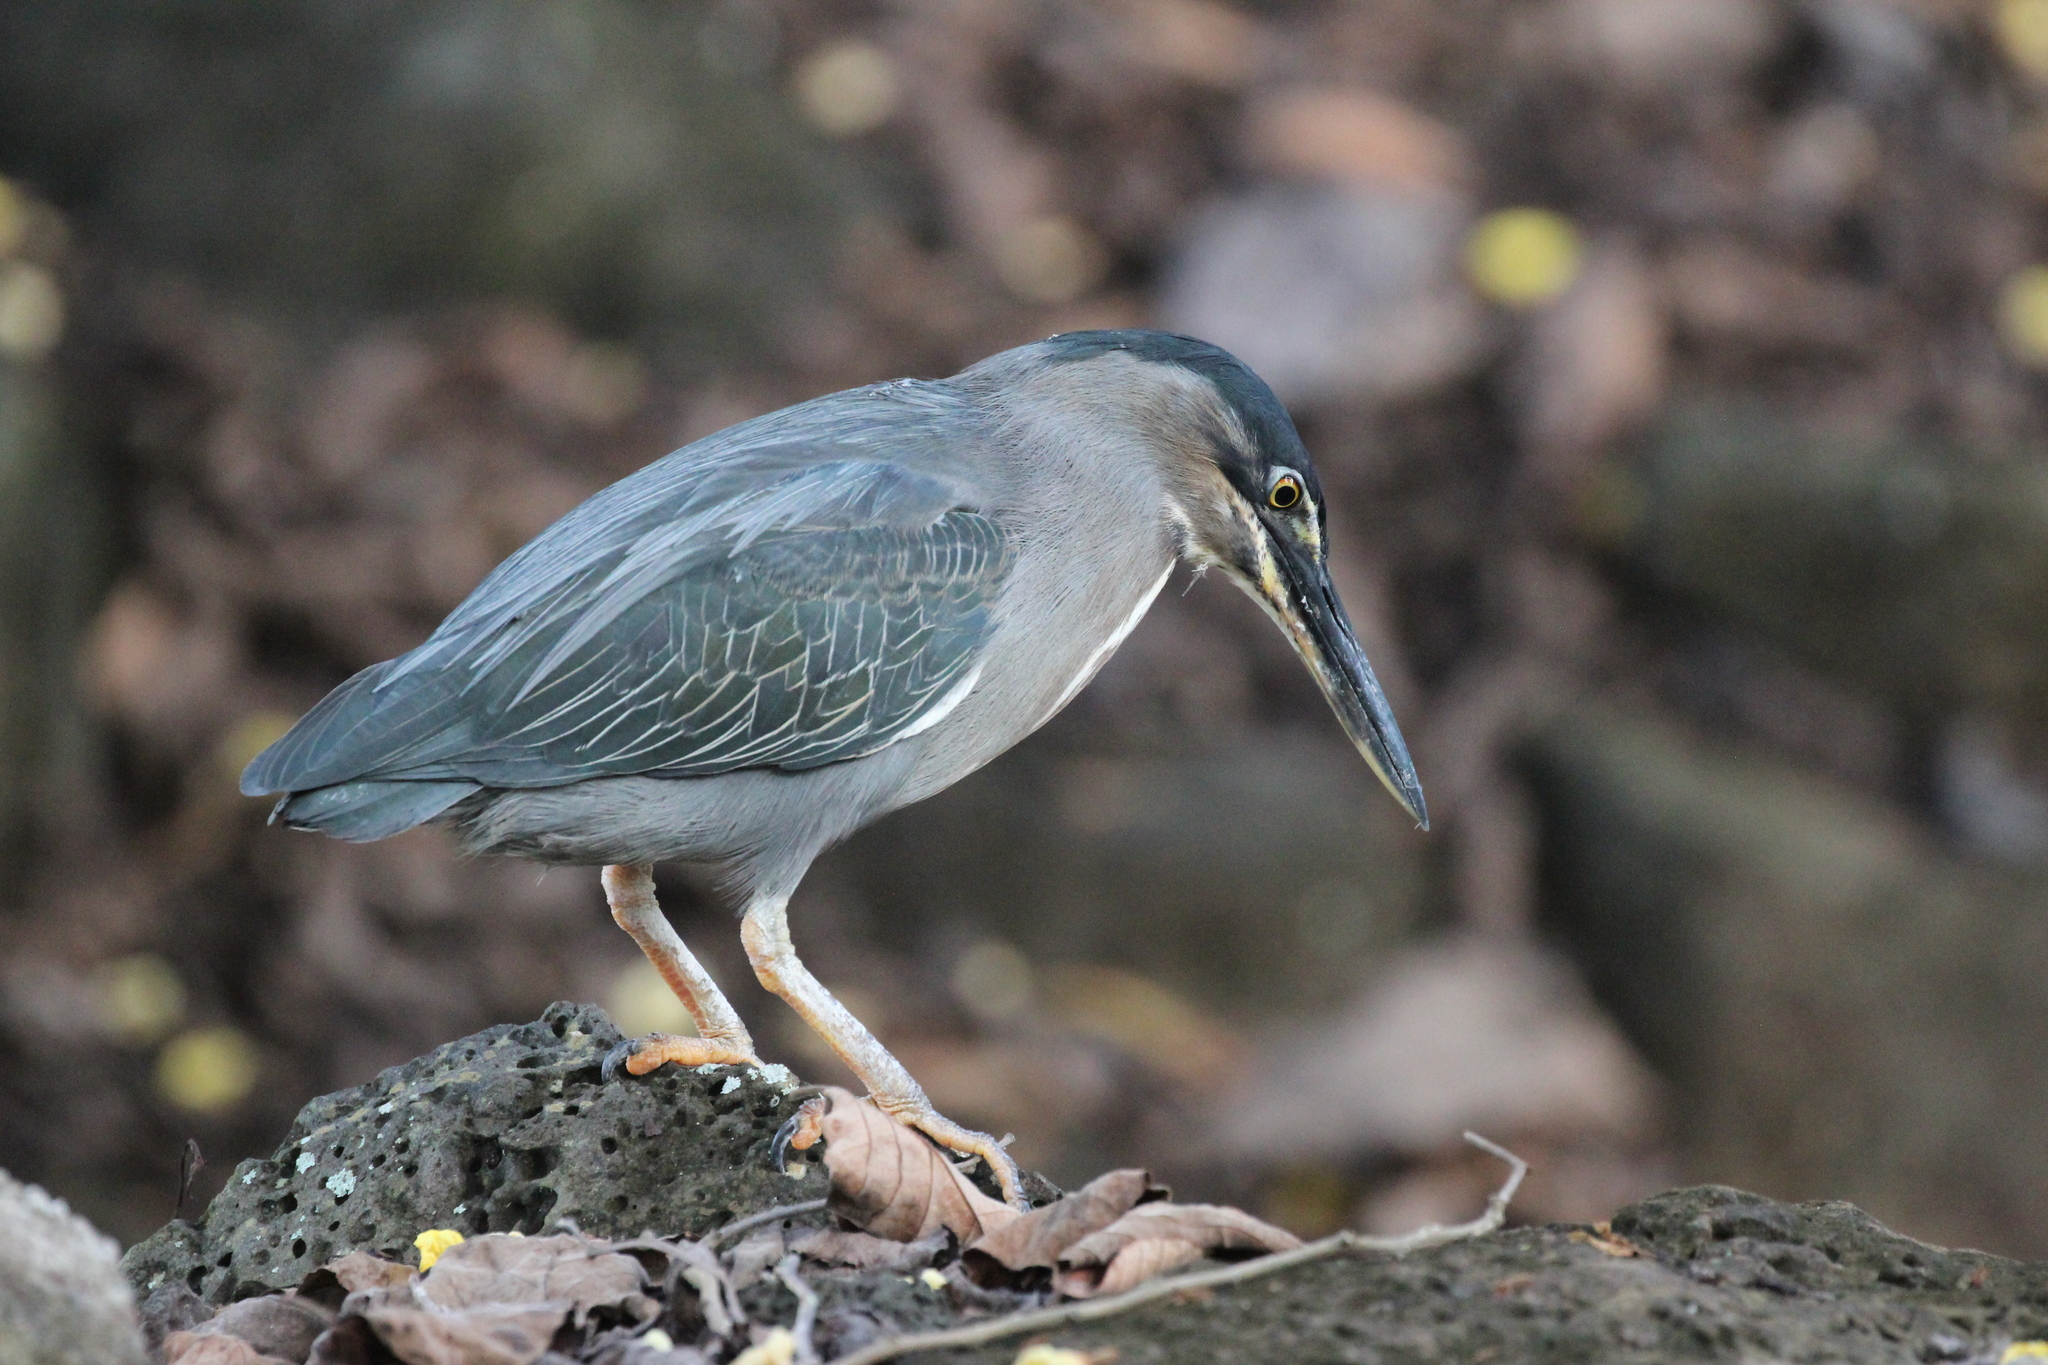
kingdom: Animalia
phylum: Chordata
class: Aves
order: Pelecaniformes
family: Ardeidae
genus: Butorides
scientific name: Butorides striata
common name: Striated heron
